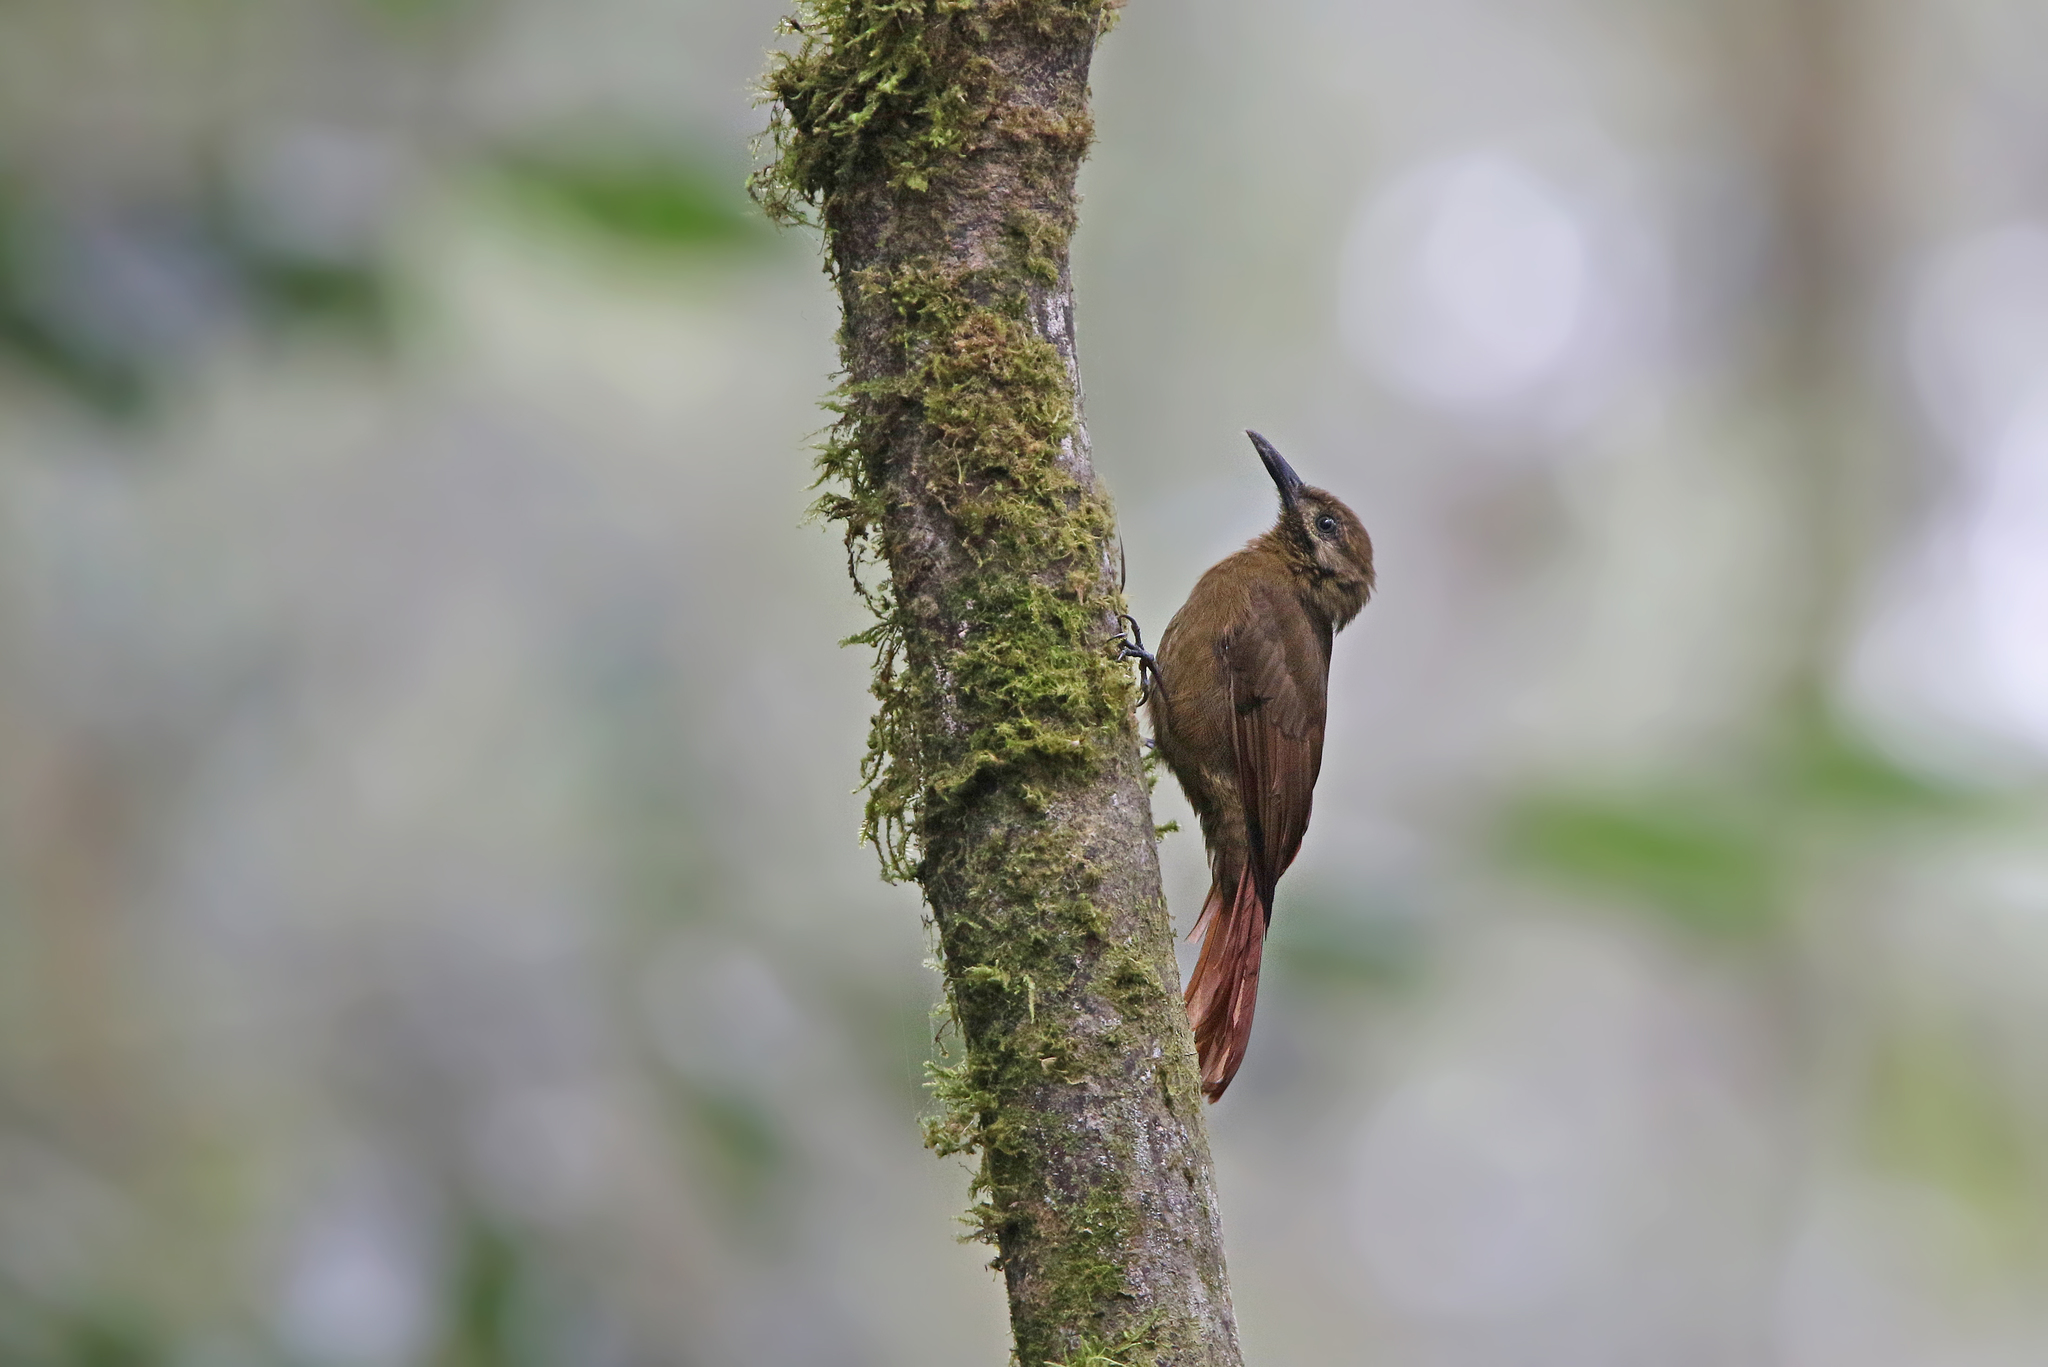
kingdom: Animalia
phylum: Chordata
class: Aves
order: Passeriformes
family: Furnariidae
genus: Dendrocincla
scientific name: Dendrocincla fuliginosa
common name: Plain-brown woodcreeper
